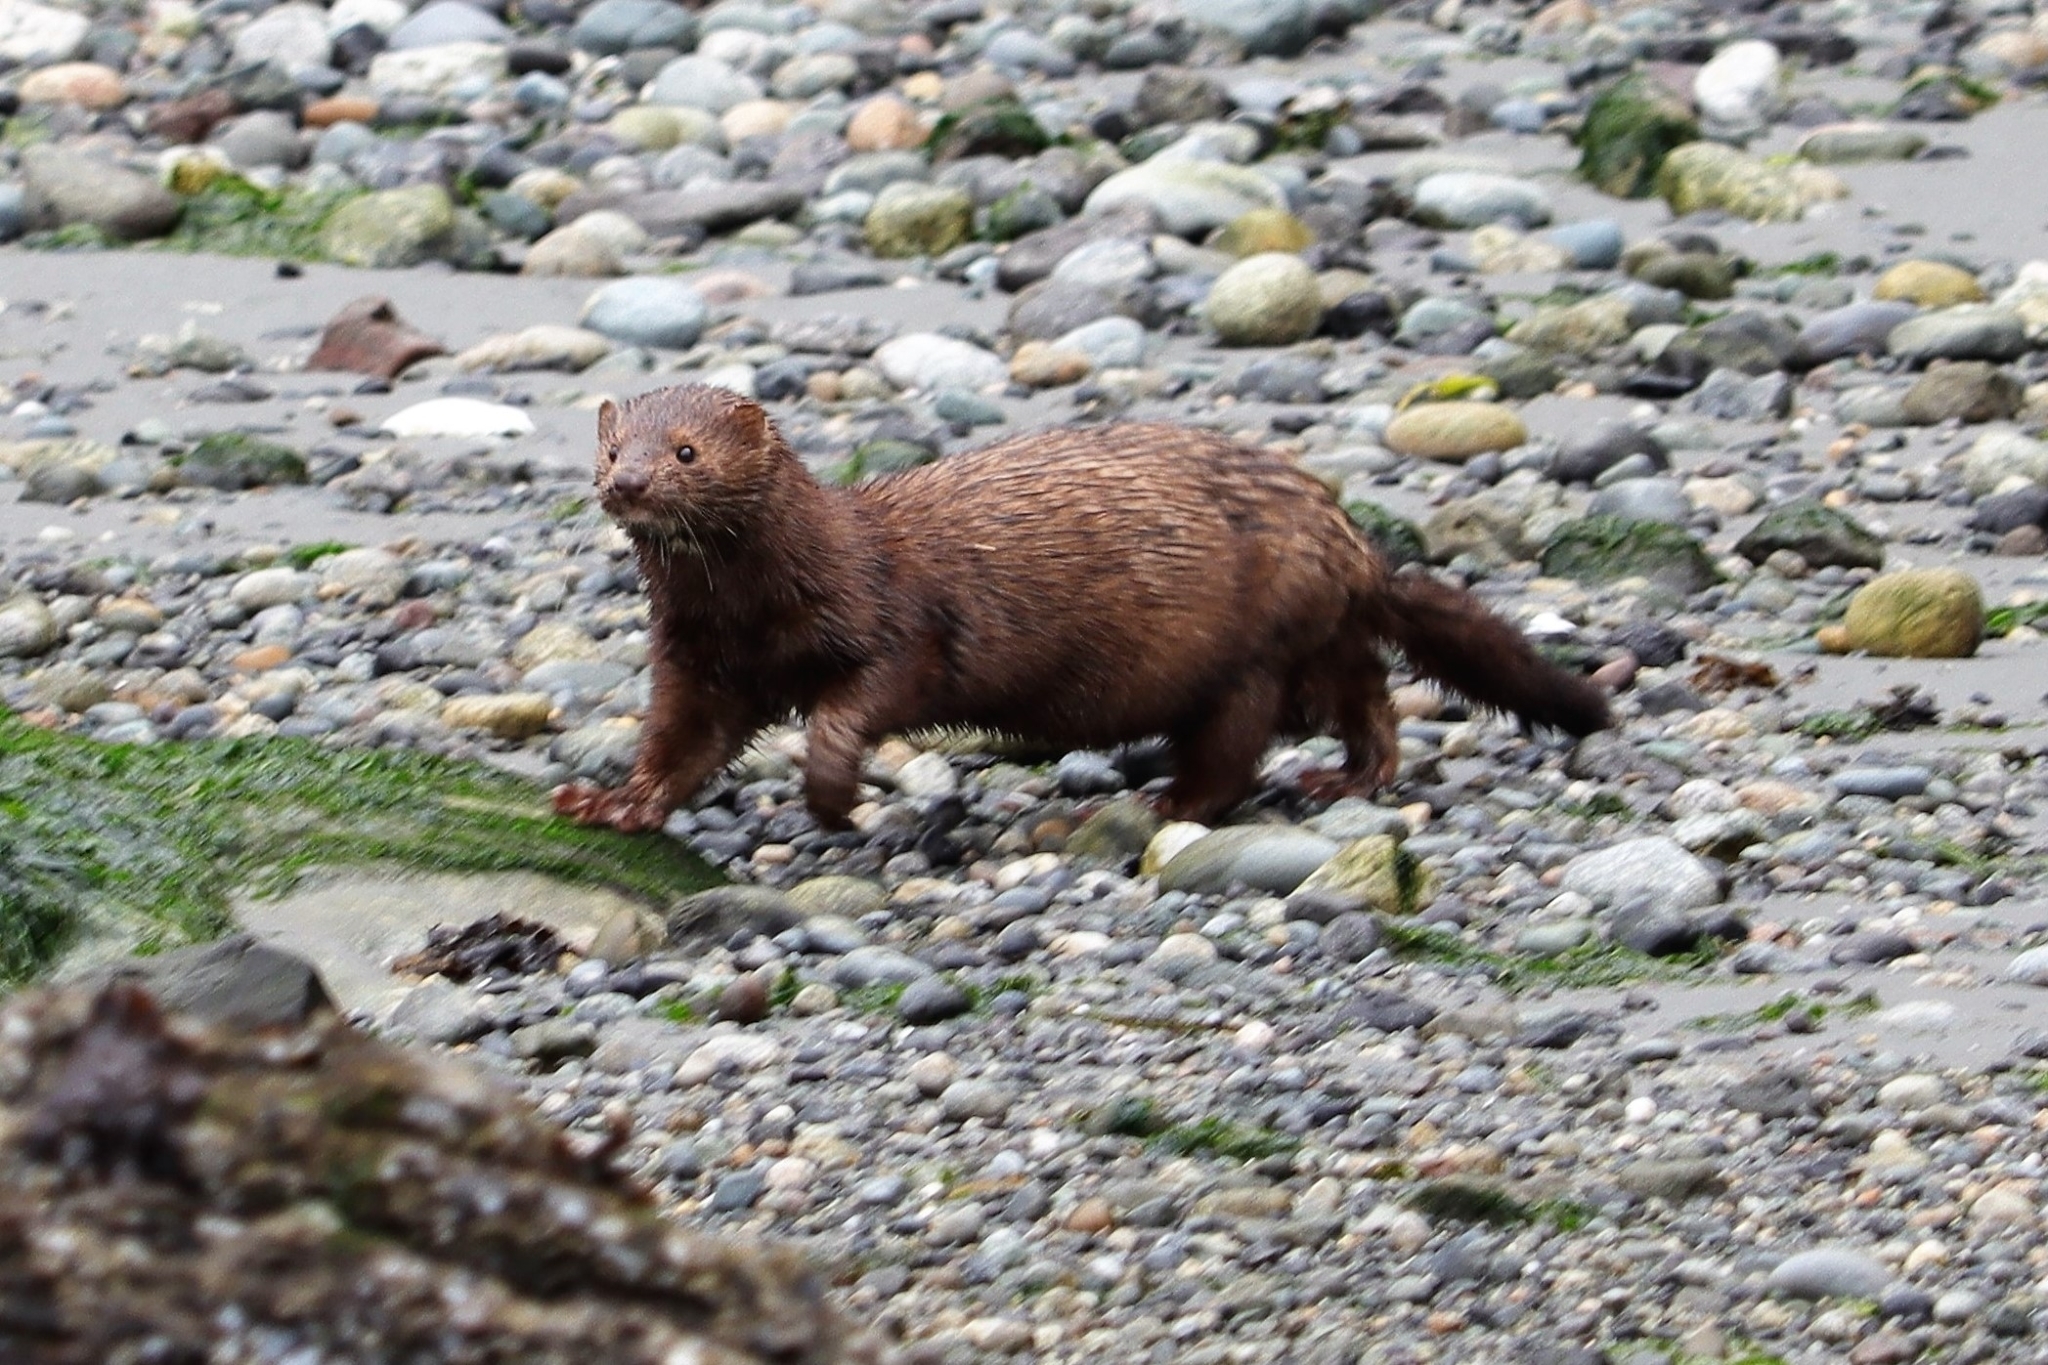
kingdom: Animalia
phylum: Chordata
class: Mammalia
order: Carnivora
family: Mustelidae
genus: Mustela
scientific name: Mustela
